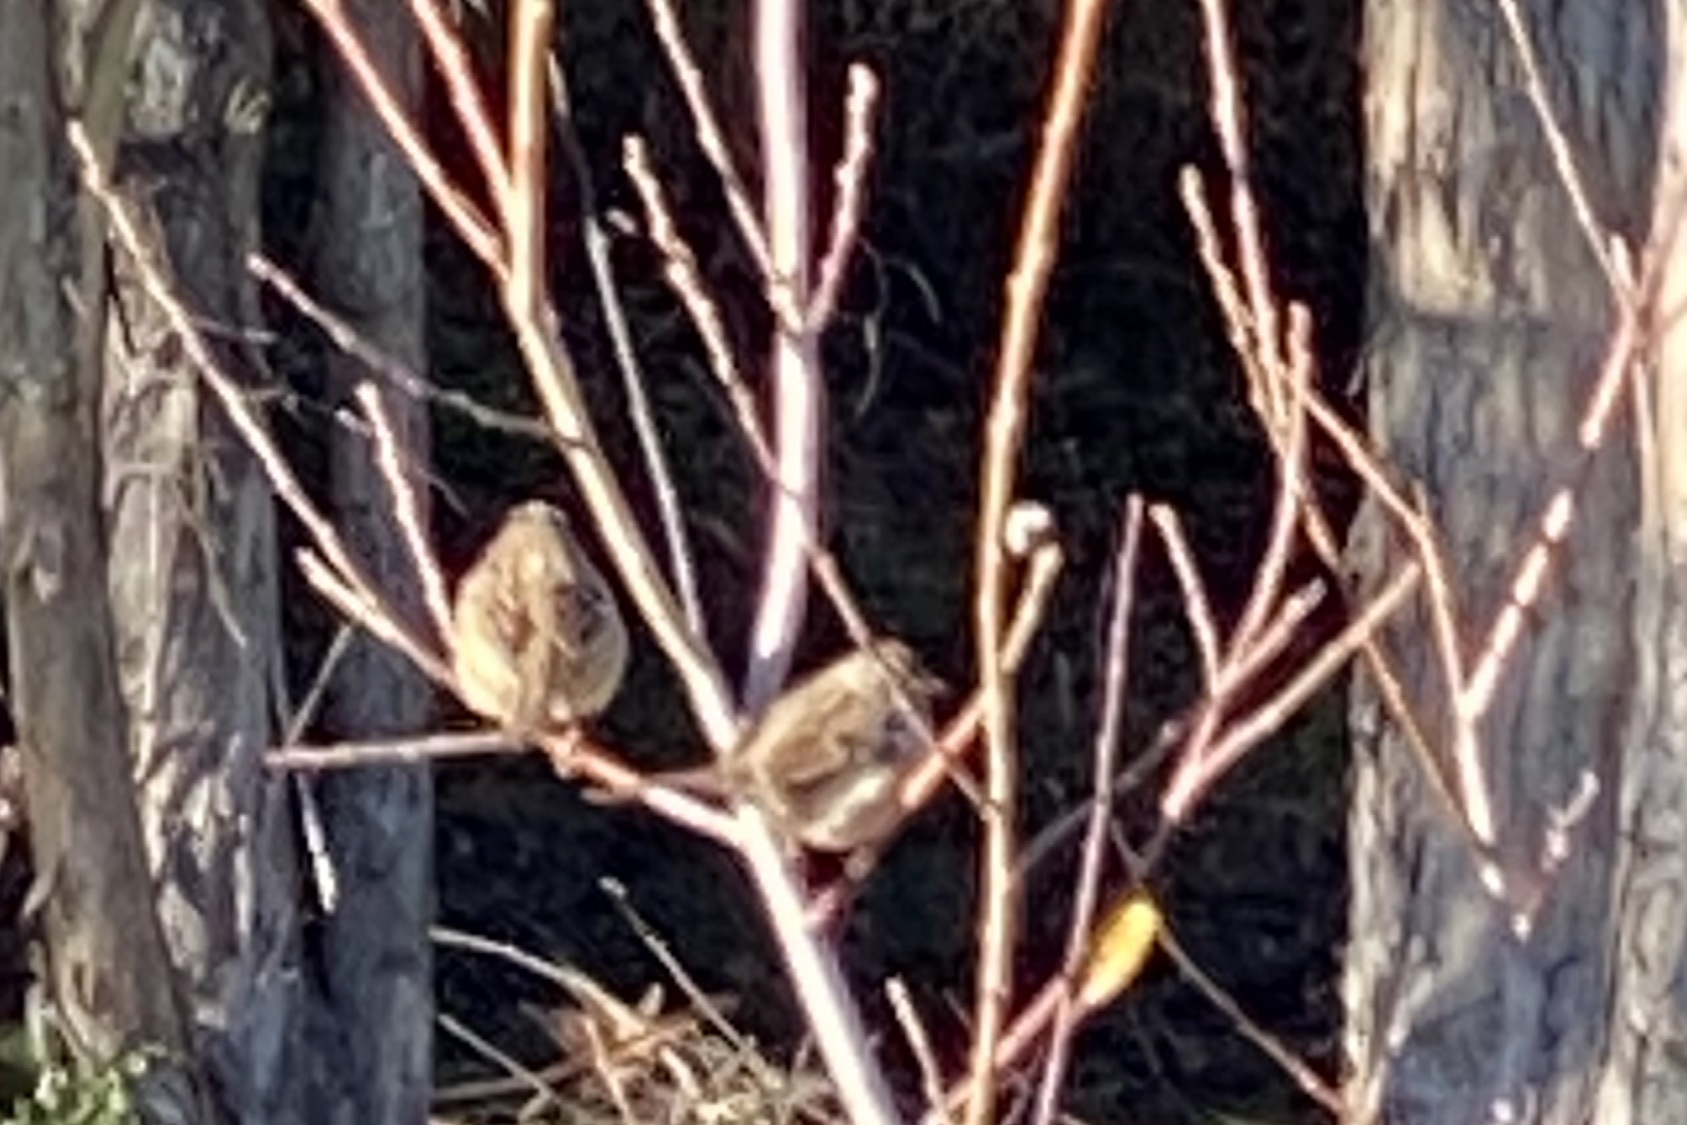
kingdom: Animalia
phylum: Chordata
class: Aves
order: Passeriformes
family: Passerellidae
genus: Zonotrichia
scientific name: Zonotrichia leucophrys
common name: White-crowned sparrow
